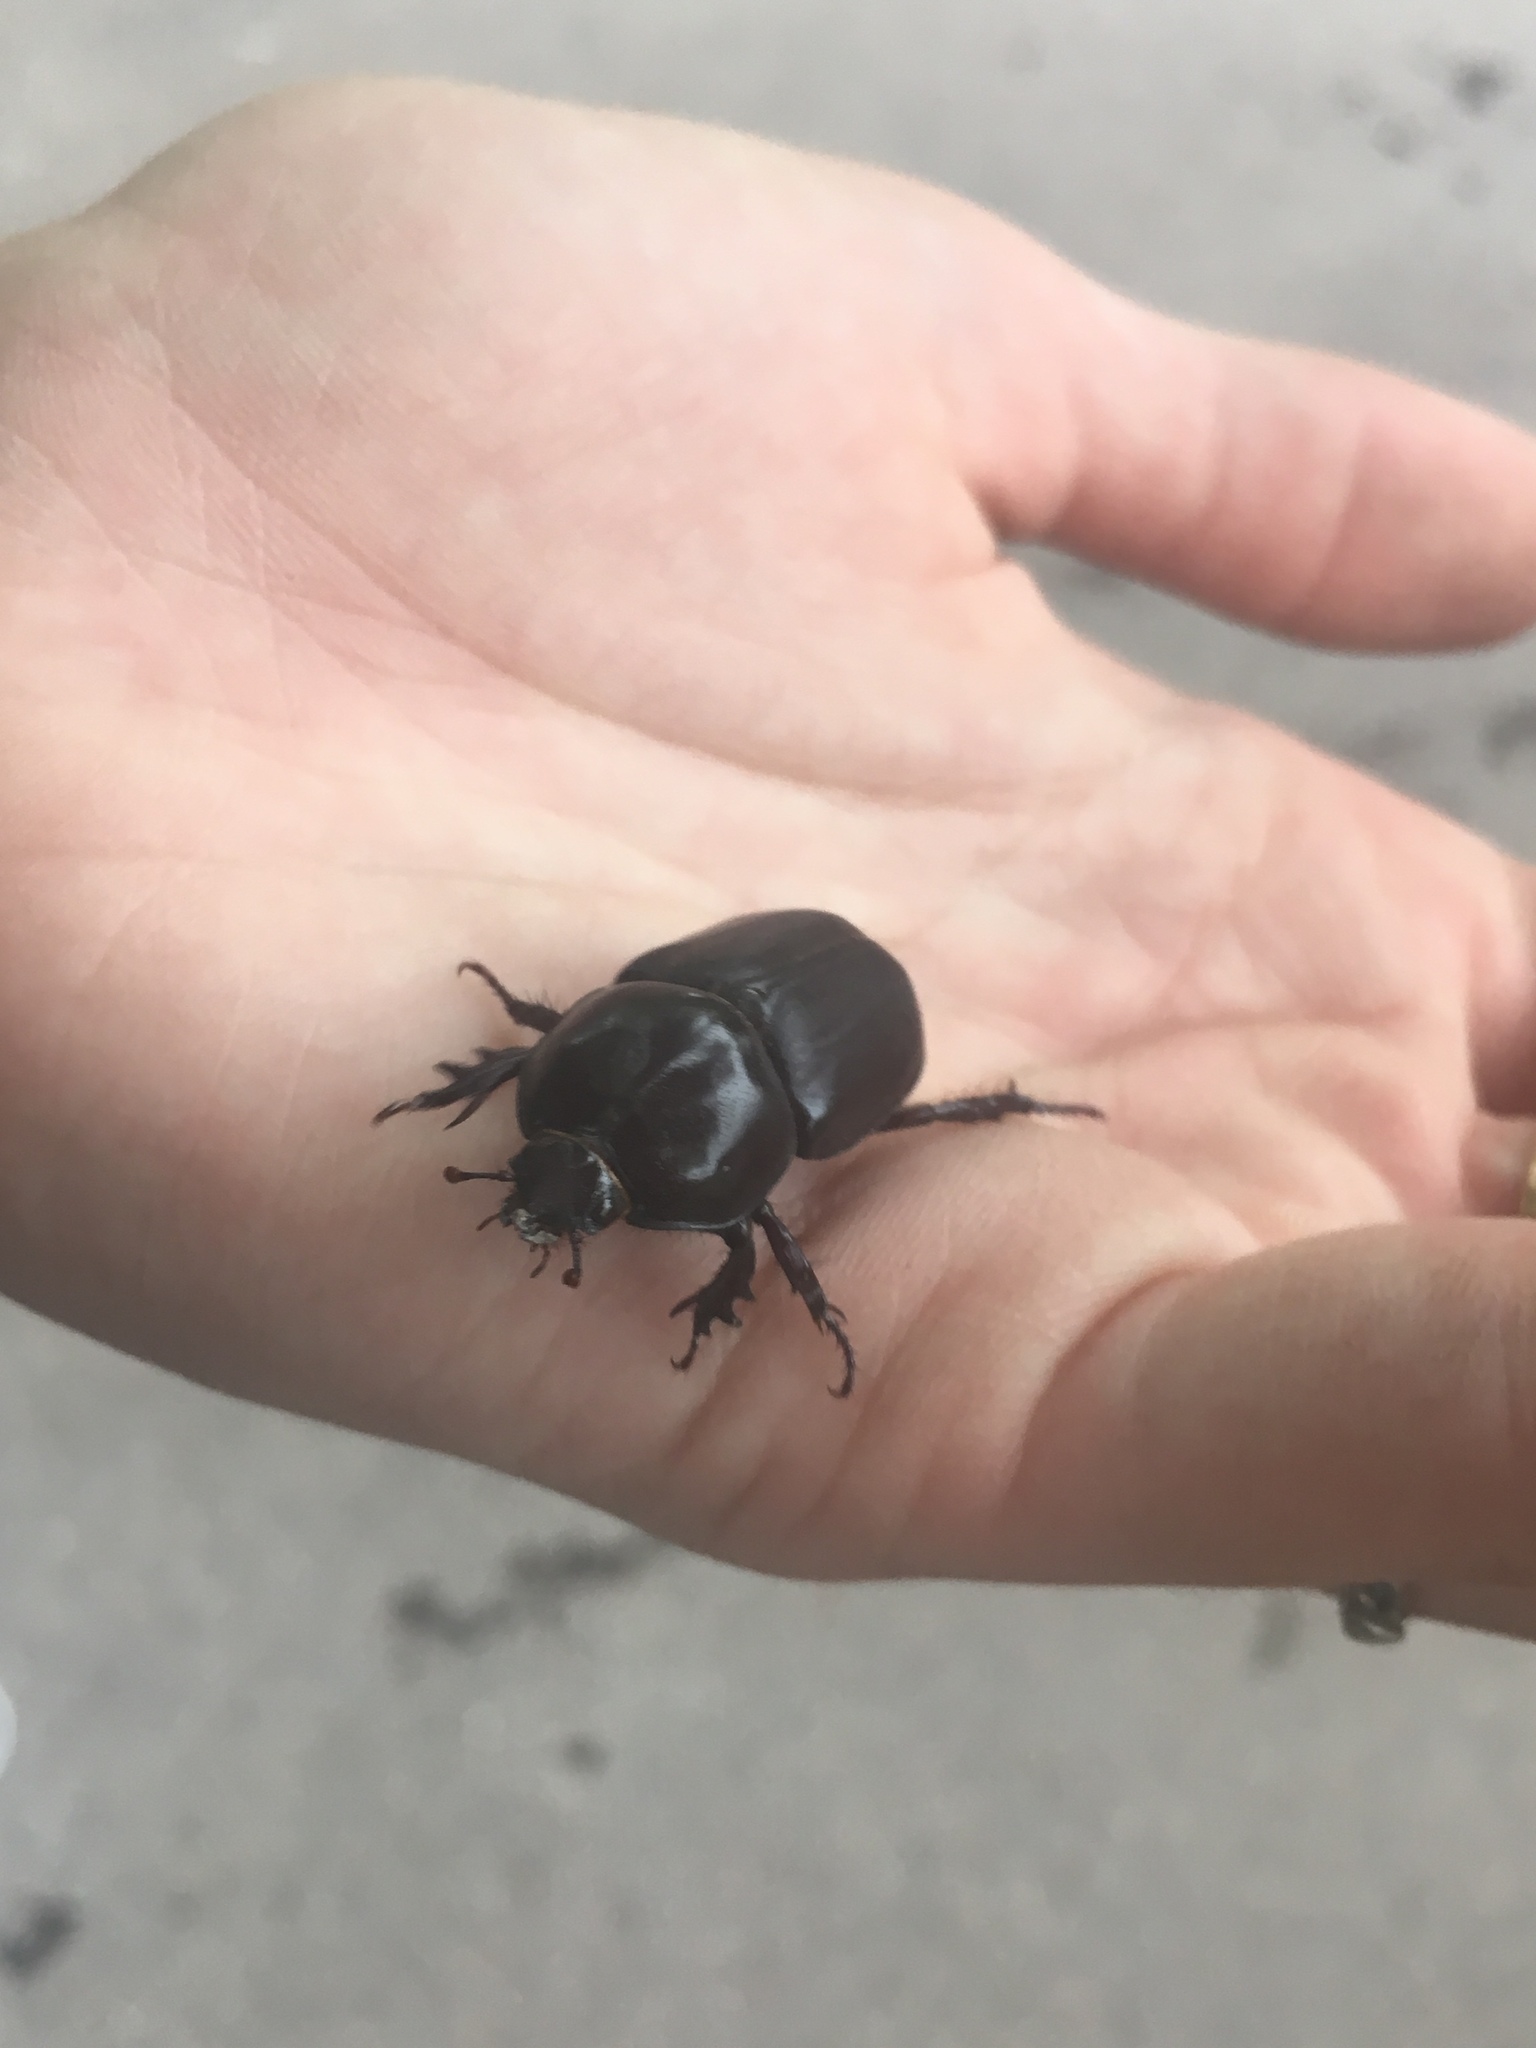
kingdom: Animalia
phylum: Arthropoda
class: Insecta
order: Coleoptera
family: Scarabaeidae
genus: Diloboderus
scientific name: Diloboderus abderus
